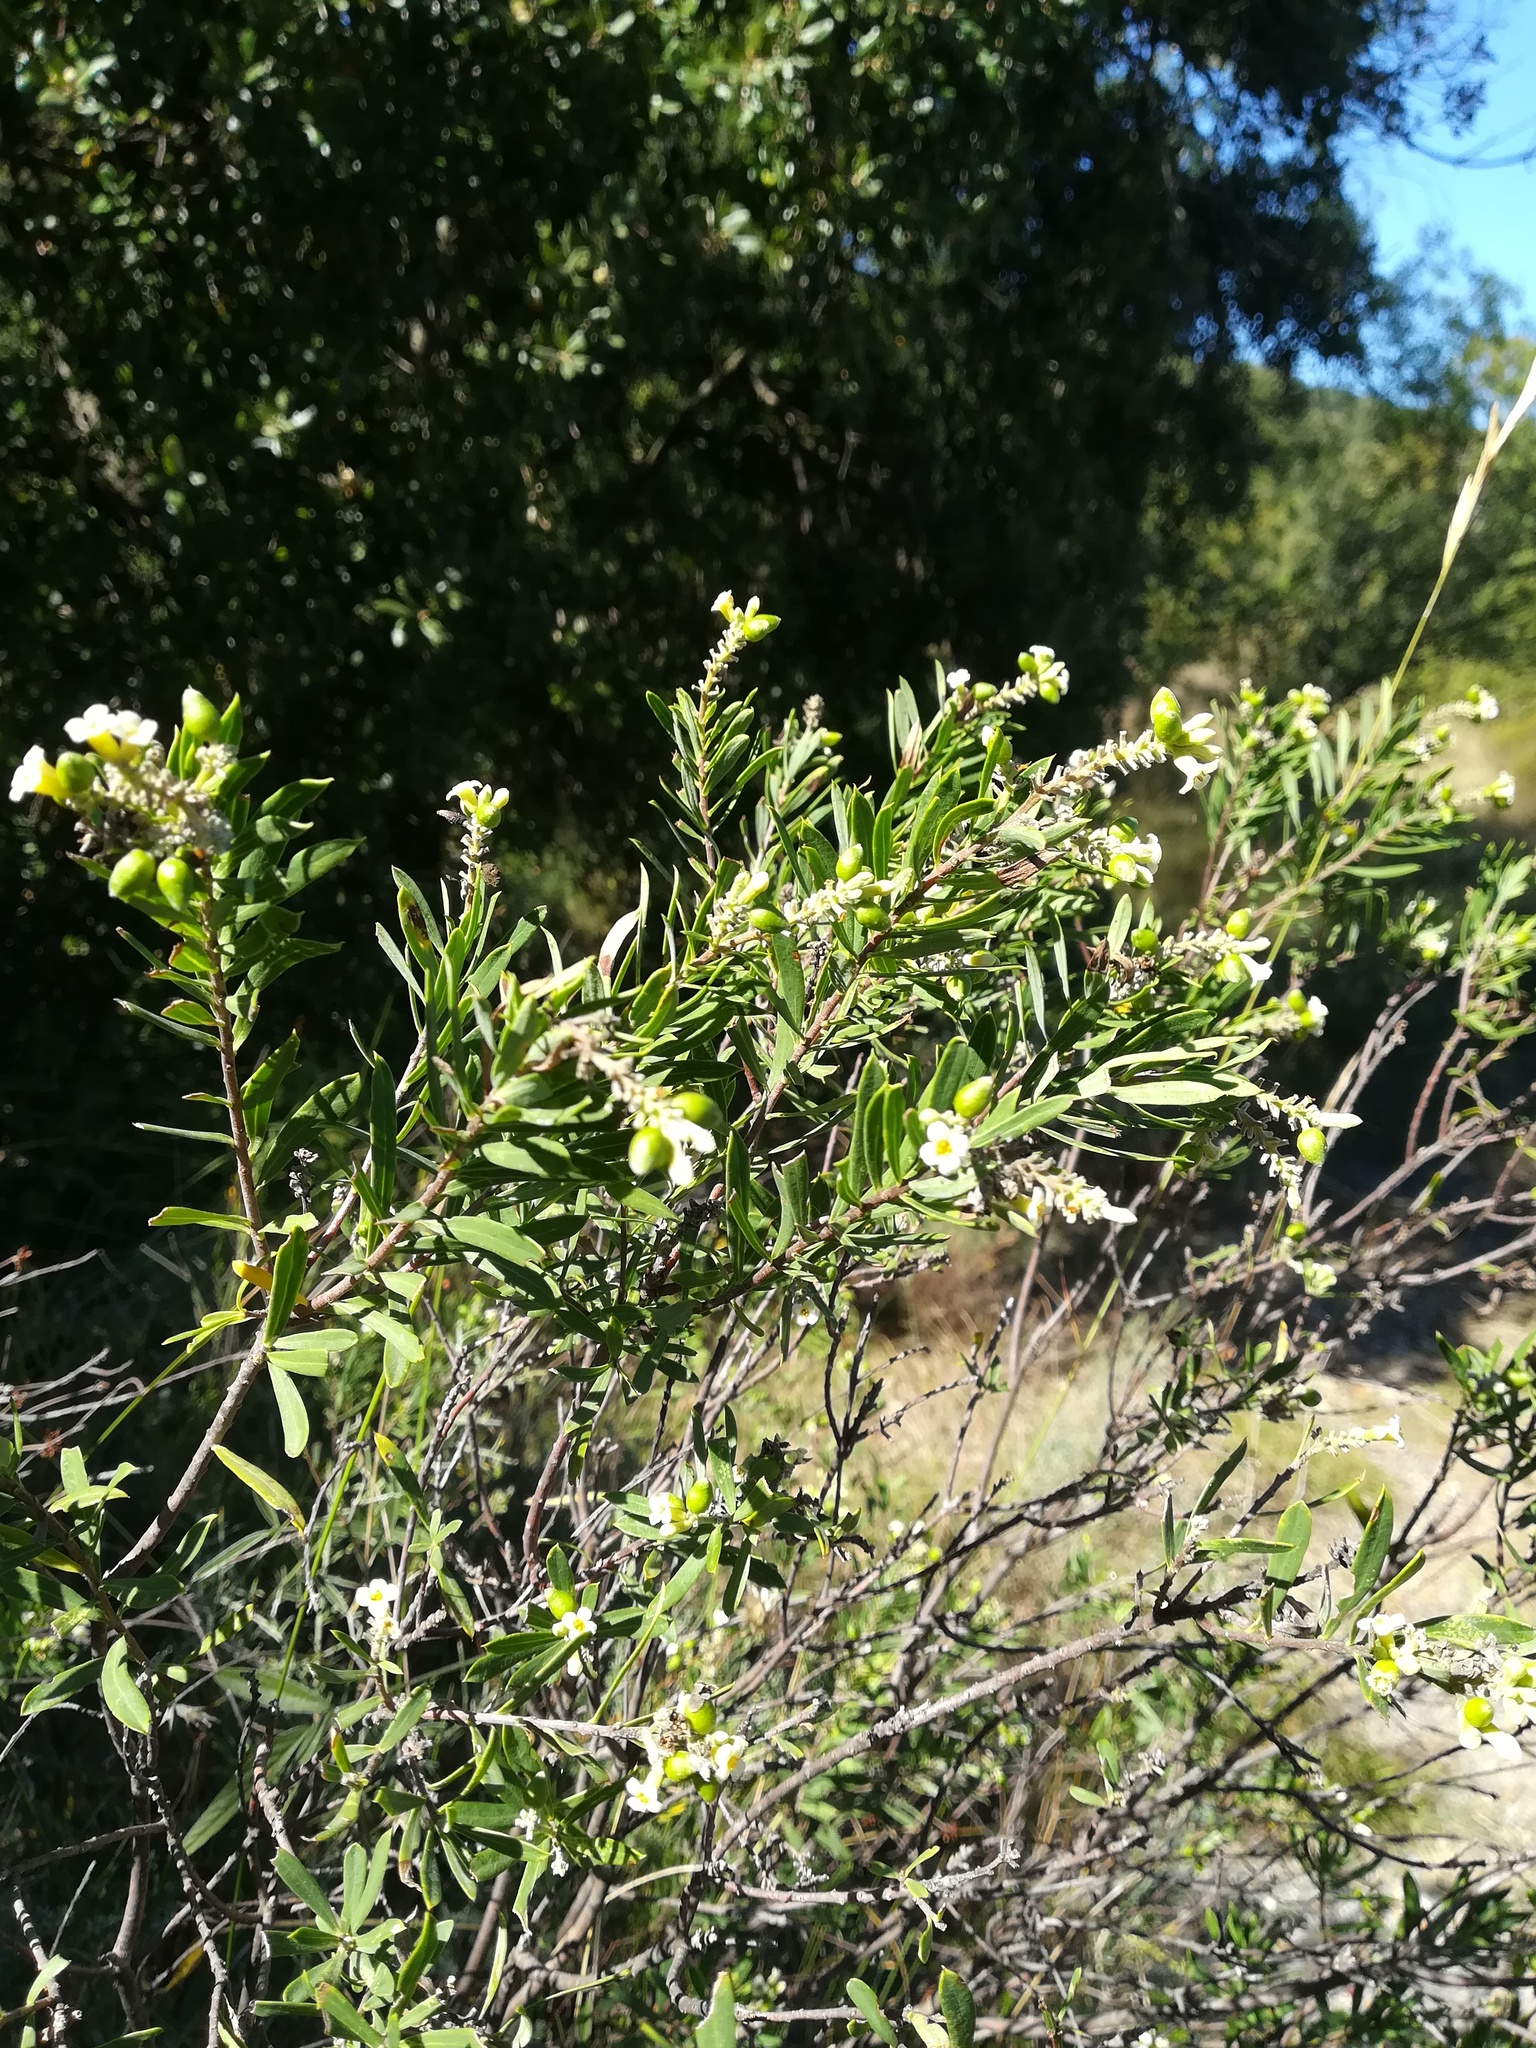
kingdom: Plantae
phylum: Tracheophyta
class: Magnoliopsida
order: Malvales
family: Thymelaeaceae
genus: Daphne
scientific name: Daphne gnidium
